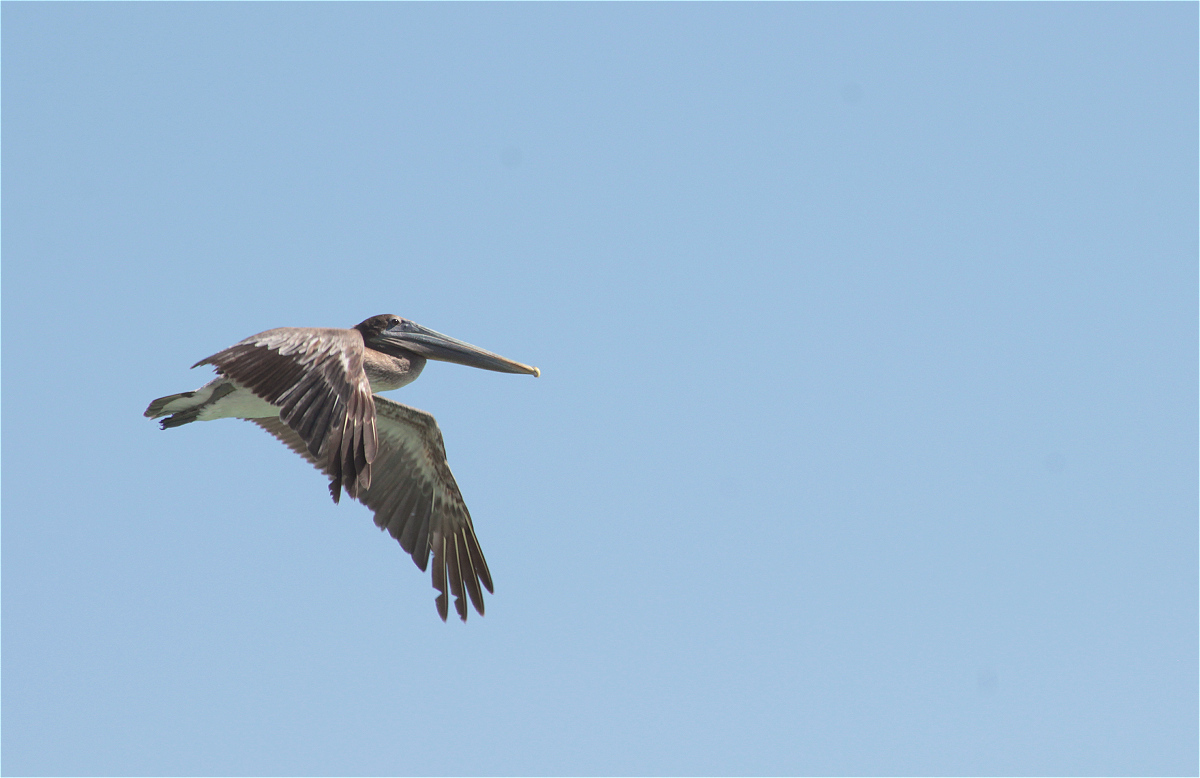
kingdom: Animalia
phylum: Chordata
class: Aves
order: Pelecaniformes
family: Pelecanidae
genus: Pelecanus
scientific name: Pelecanus occidentalis
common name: Brown pelican
